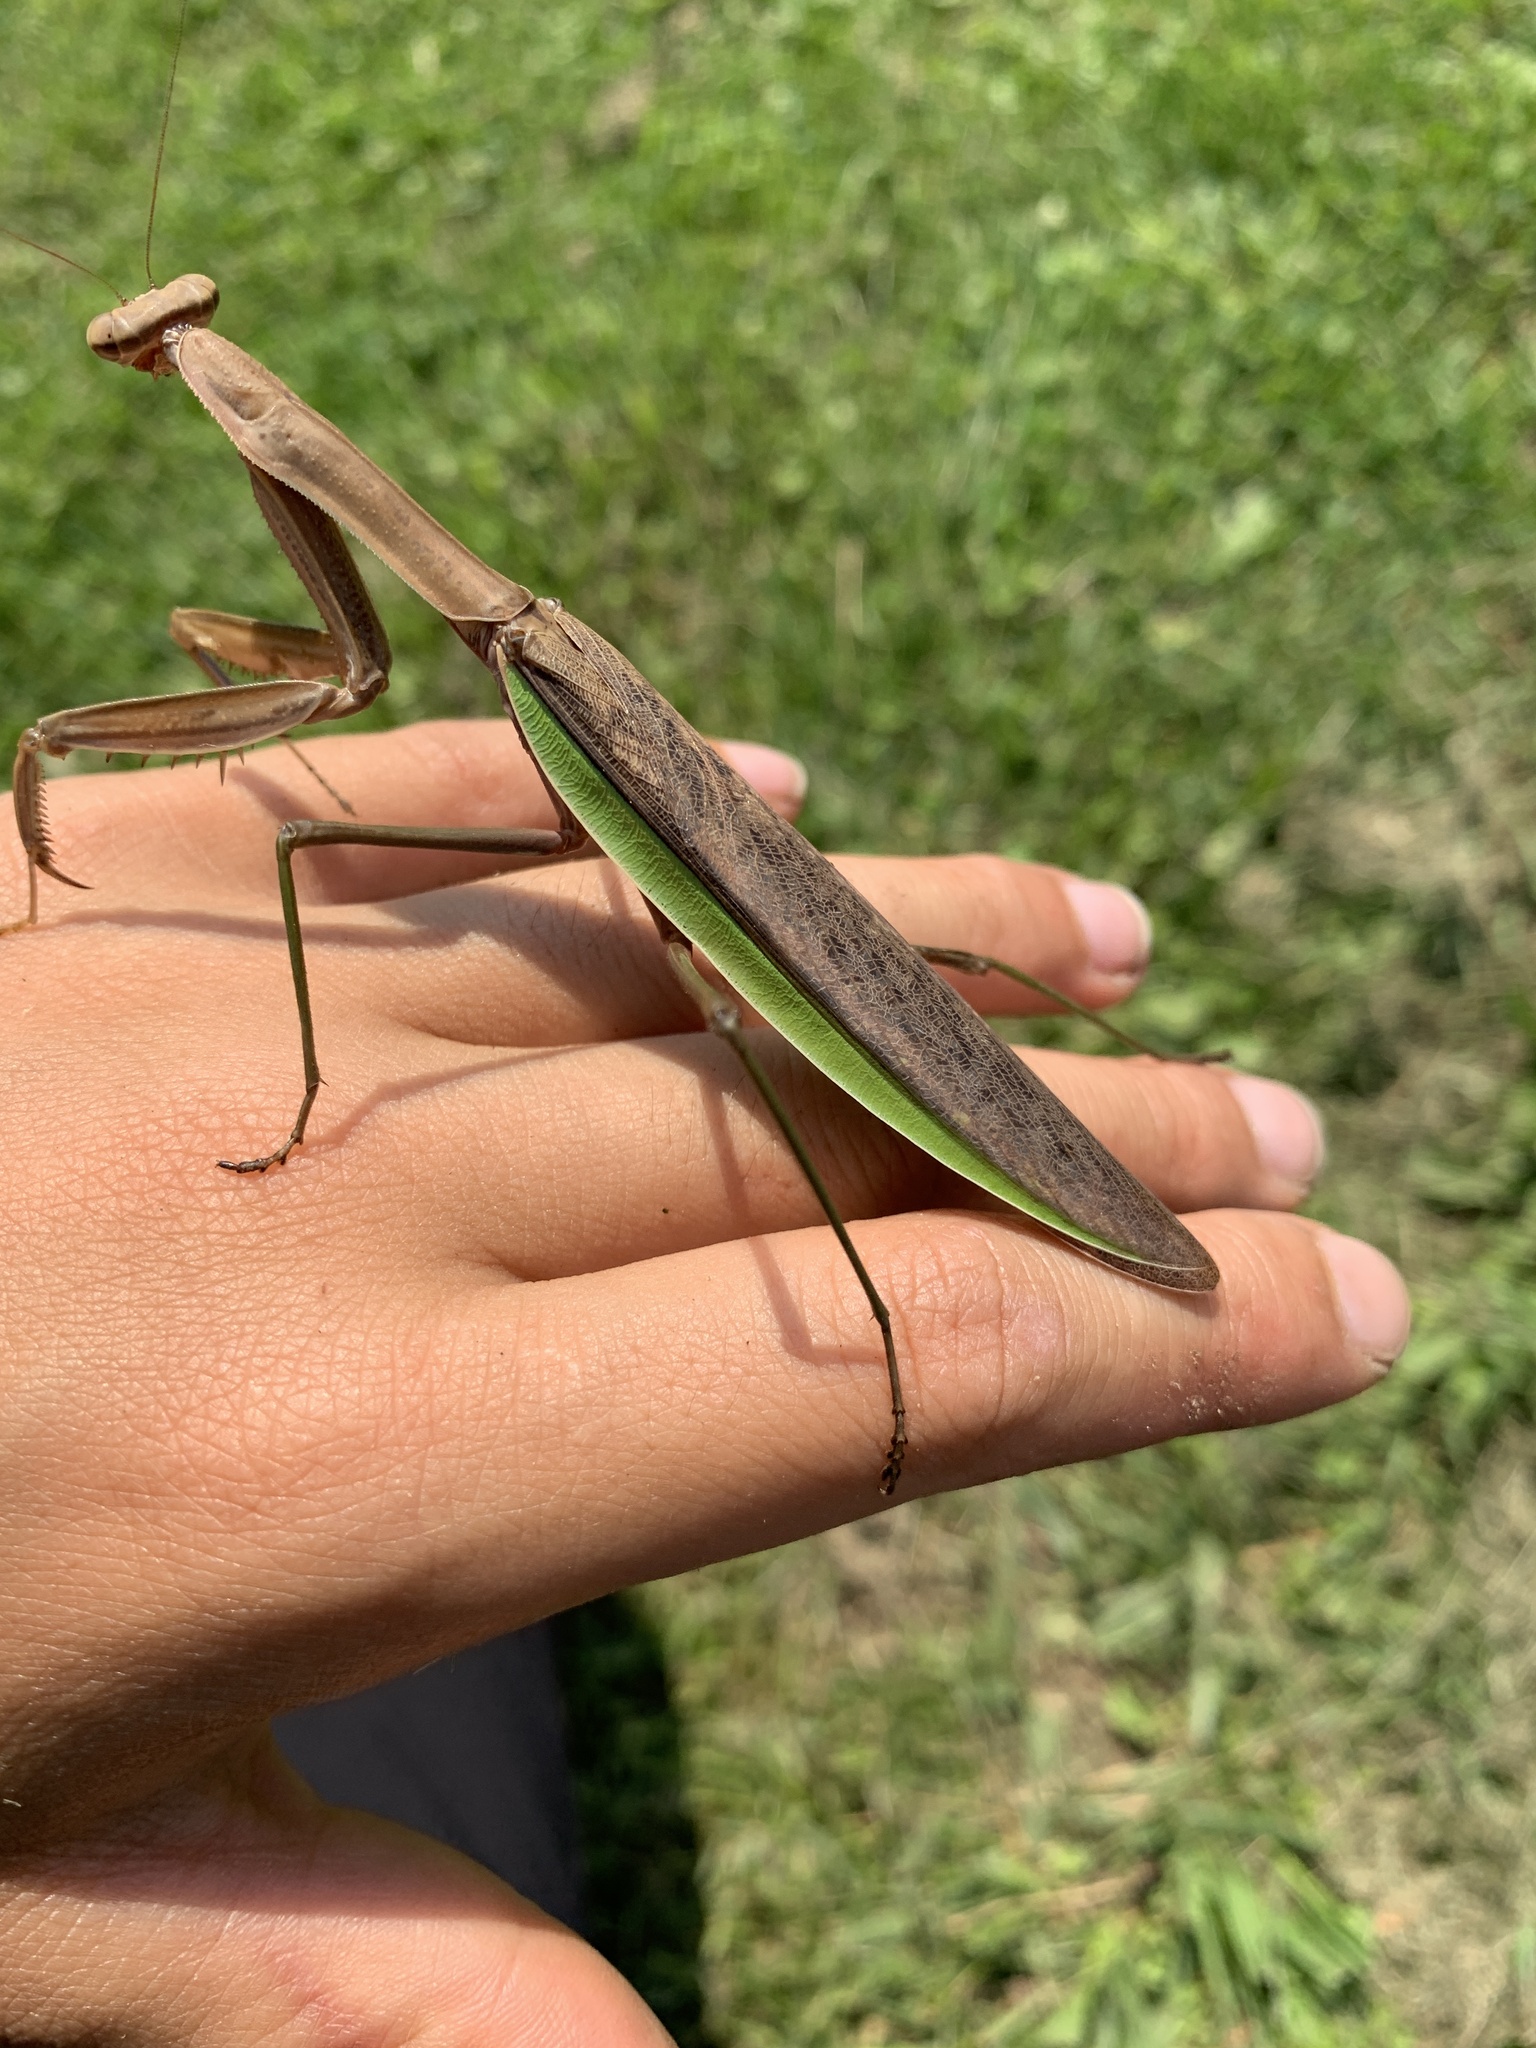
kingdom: Animalia
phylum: Arthropoda
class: Insecta
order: Mantodea
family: Mantidae
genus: Tenodera
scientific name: Tenodera sinensis
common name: Chinese mantis
